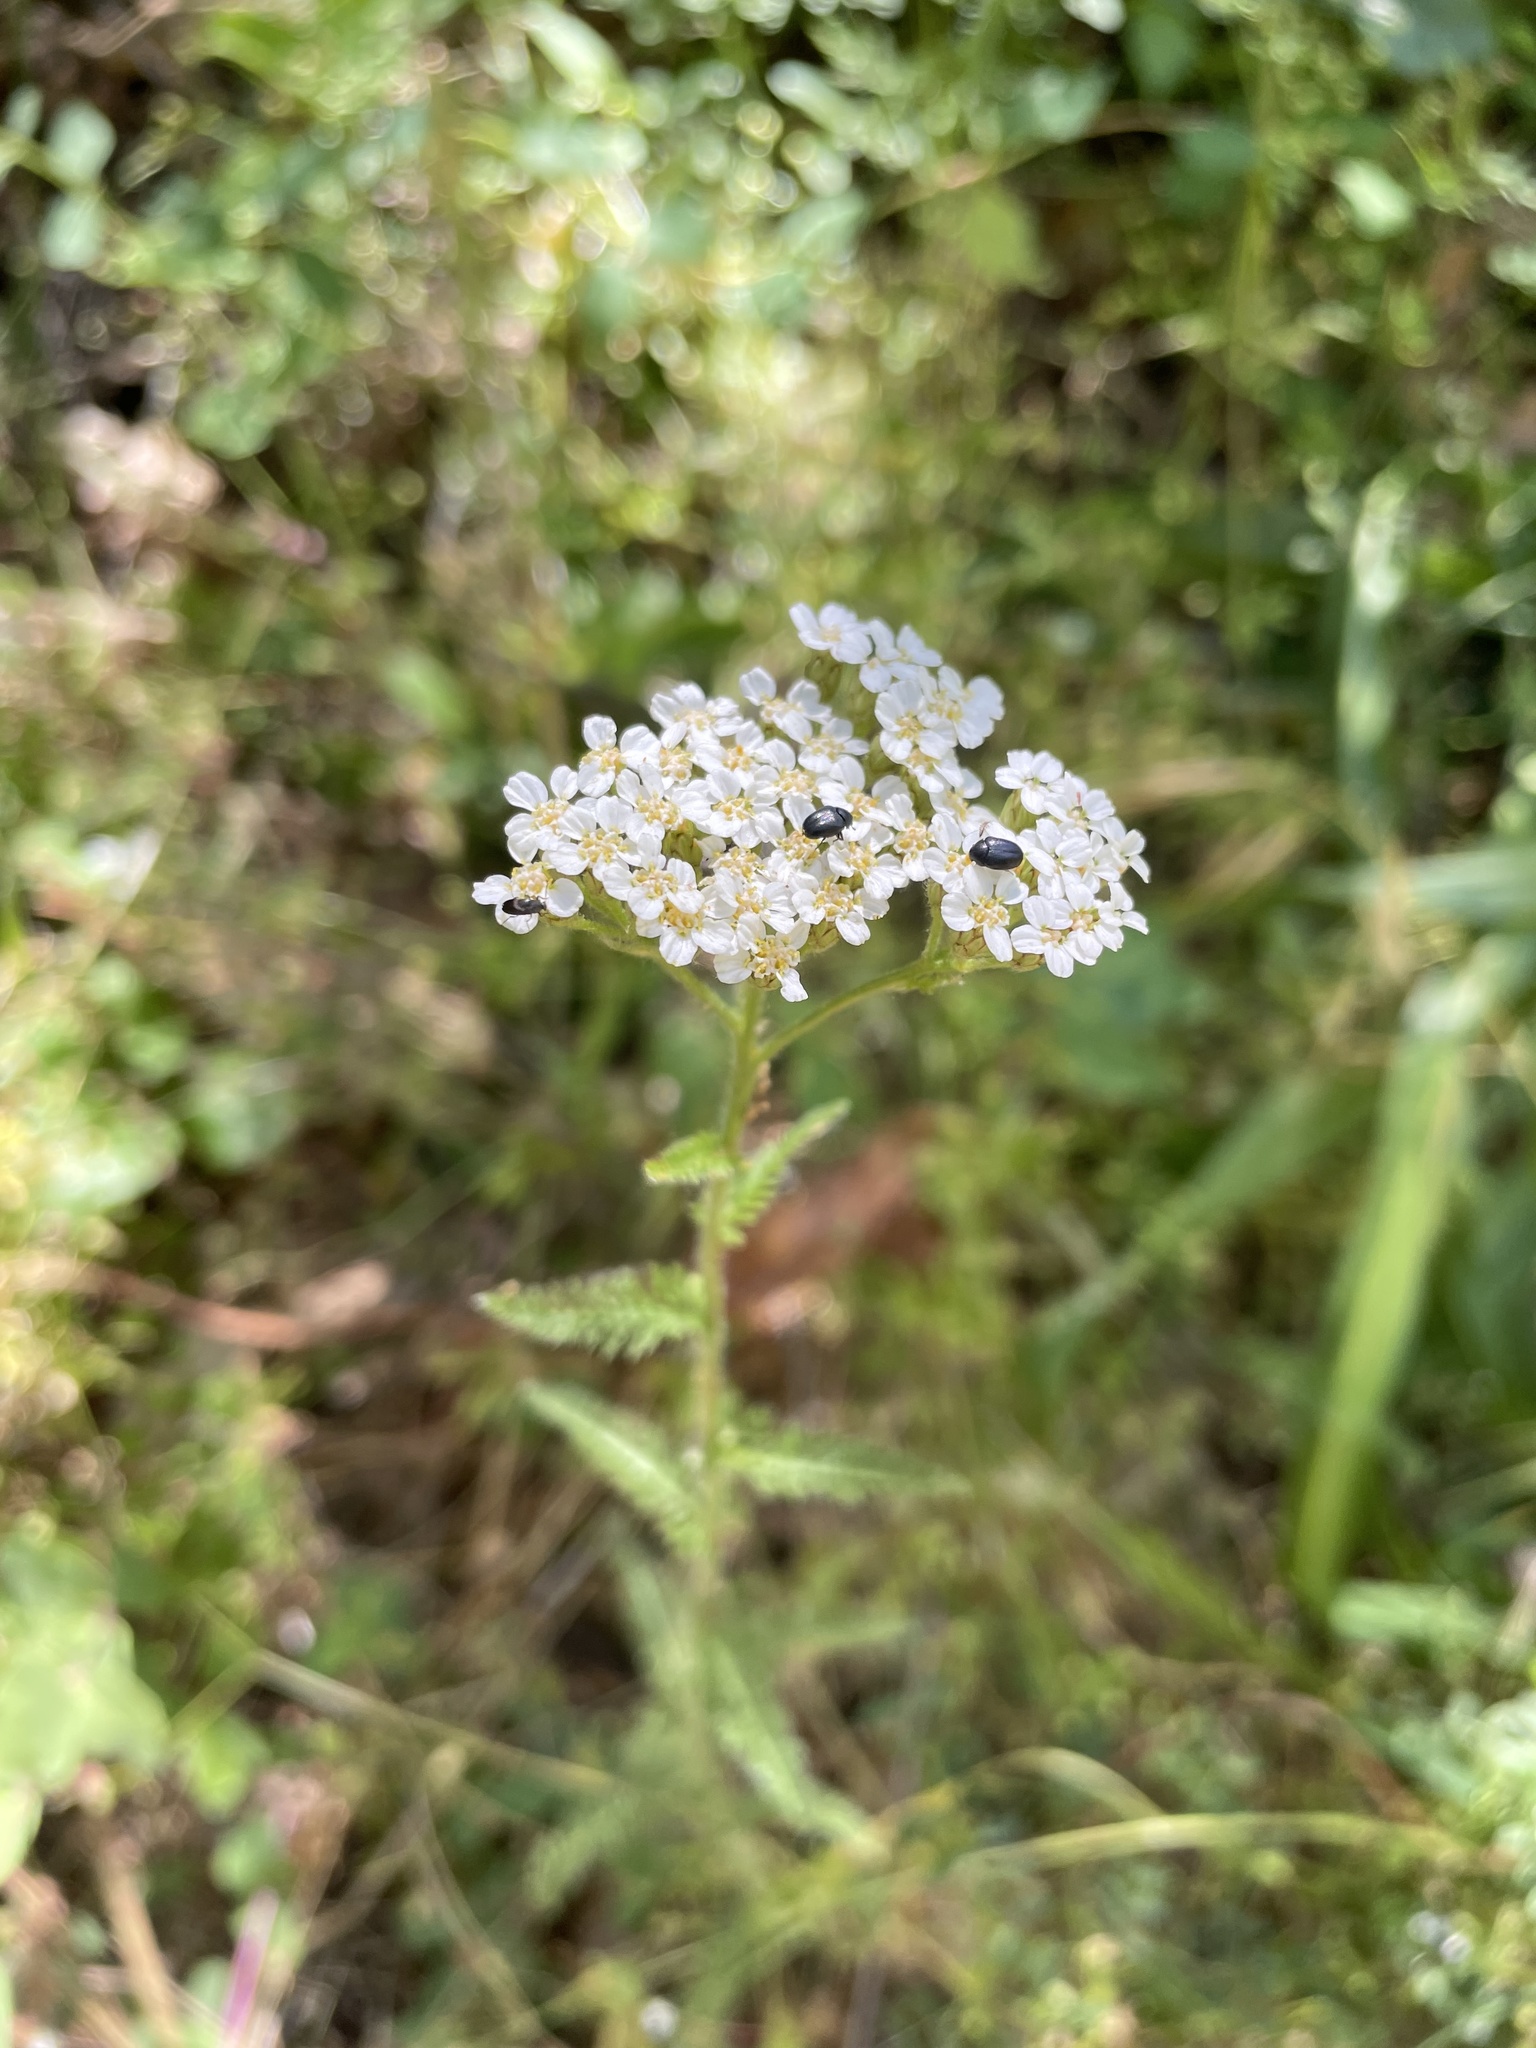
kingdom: Plantae
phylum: Tracheophyta
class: Magnoliopsida
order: Asterales
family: Asteraceae
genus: Achillea
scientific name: Achillea millefolium
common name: Yarrow
